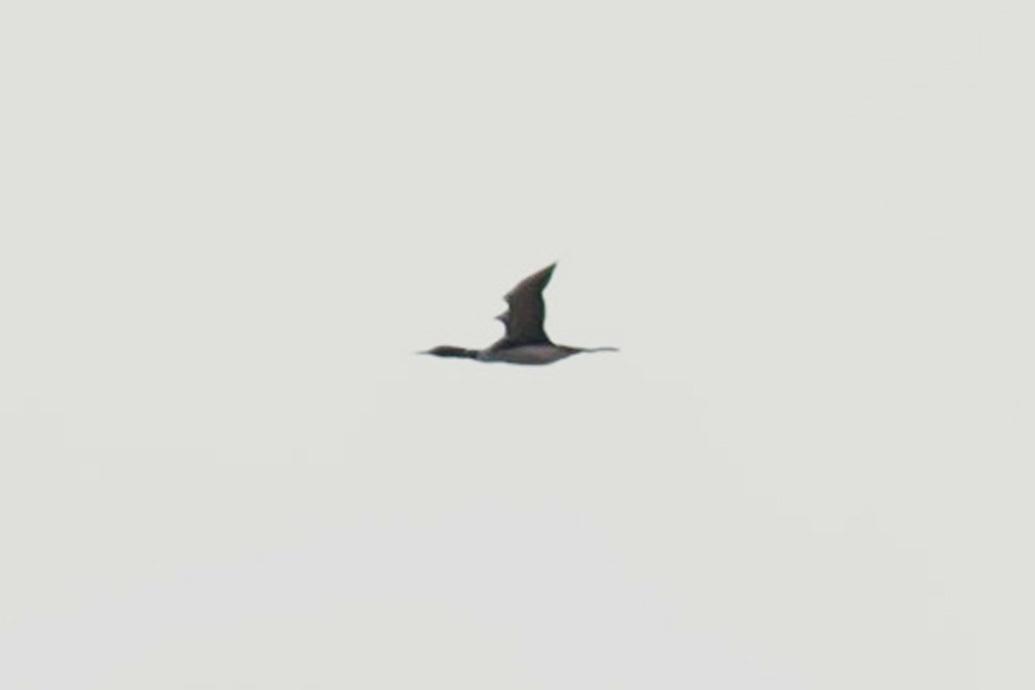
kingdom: Animalia
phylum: Chordata
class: Aves
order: Gaviiformes
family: Gaviidae
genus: Gavia
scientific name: Gavia immer
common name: Common loon
